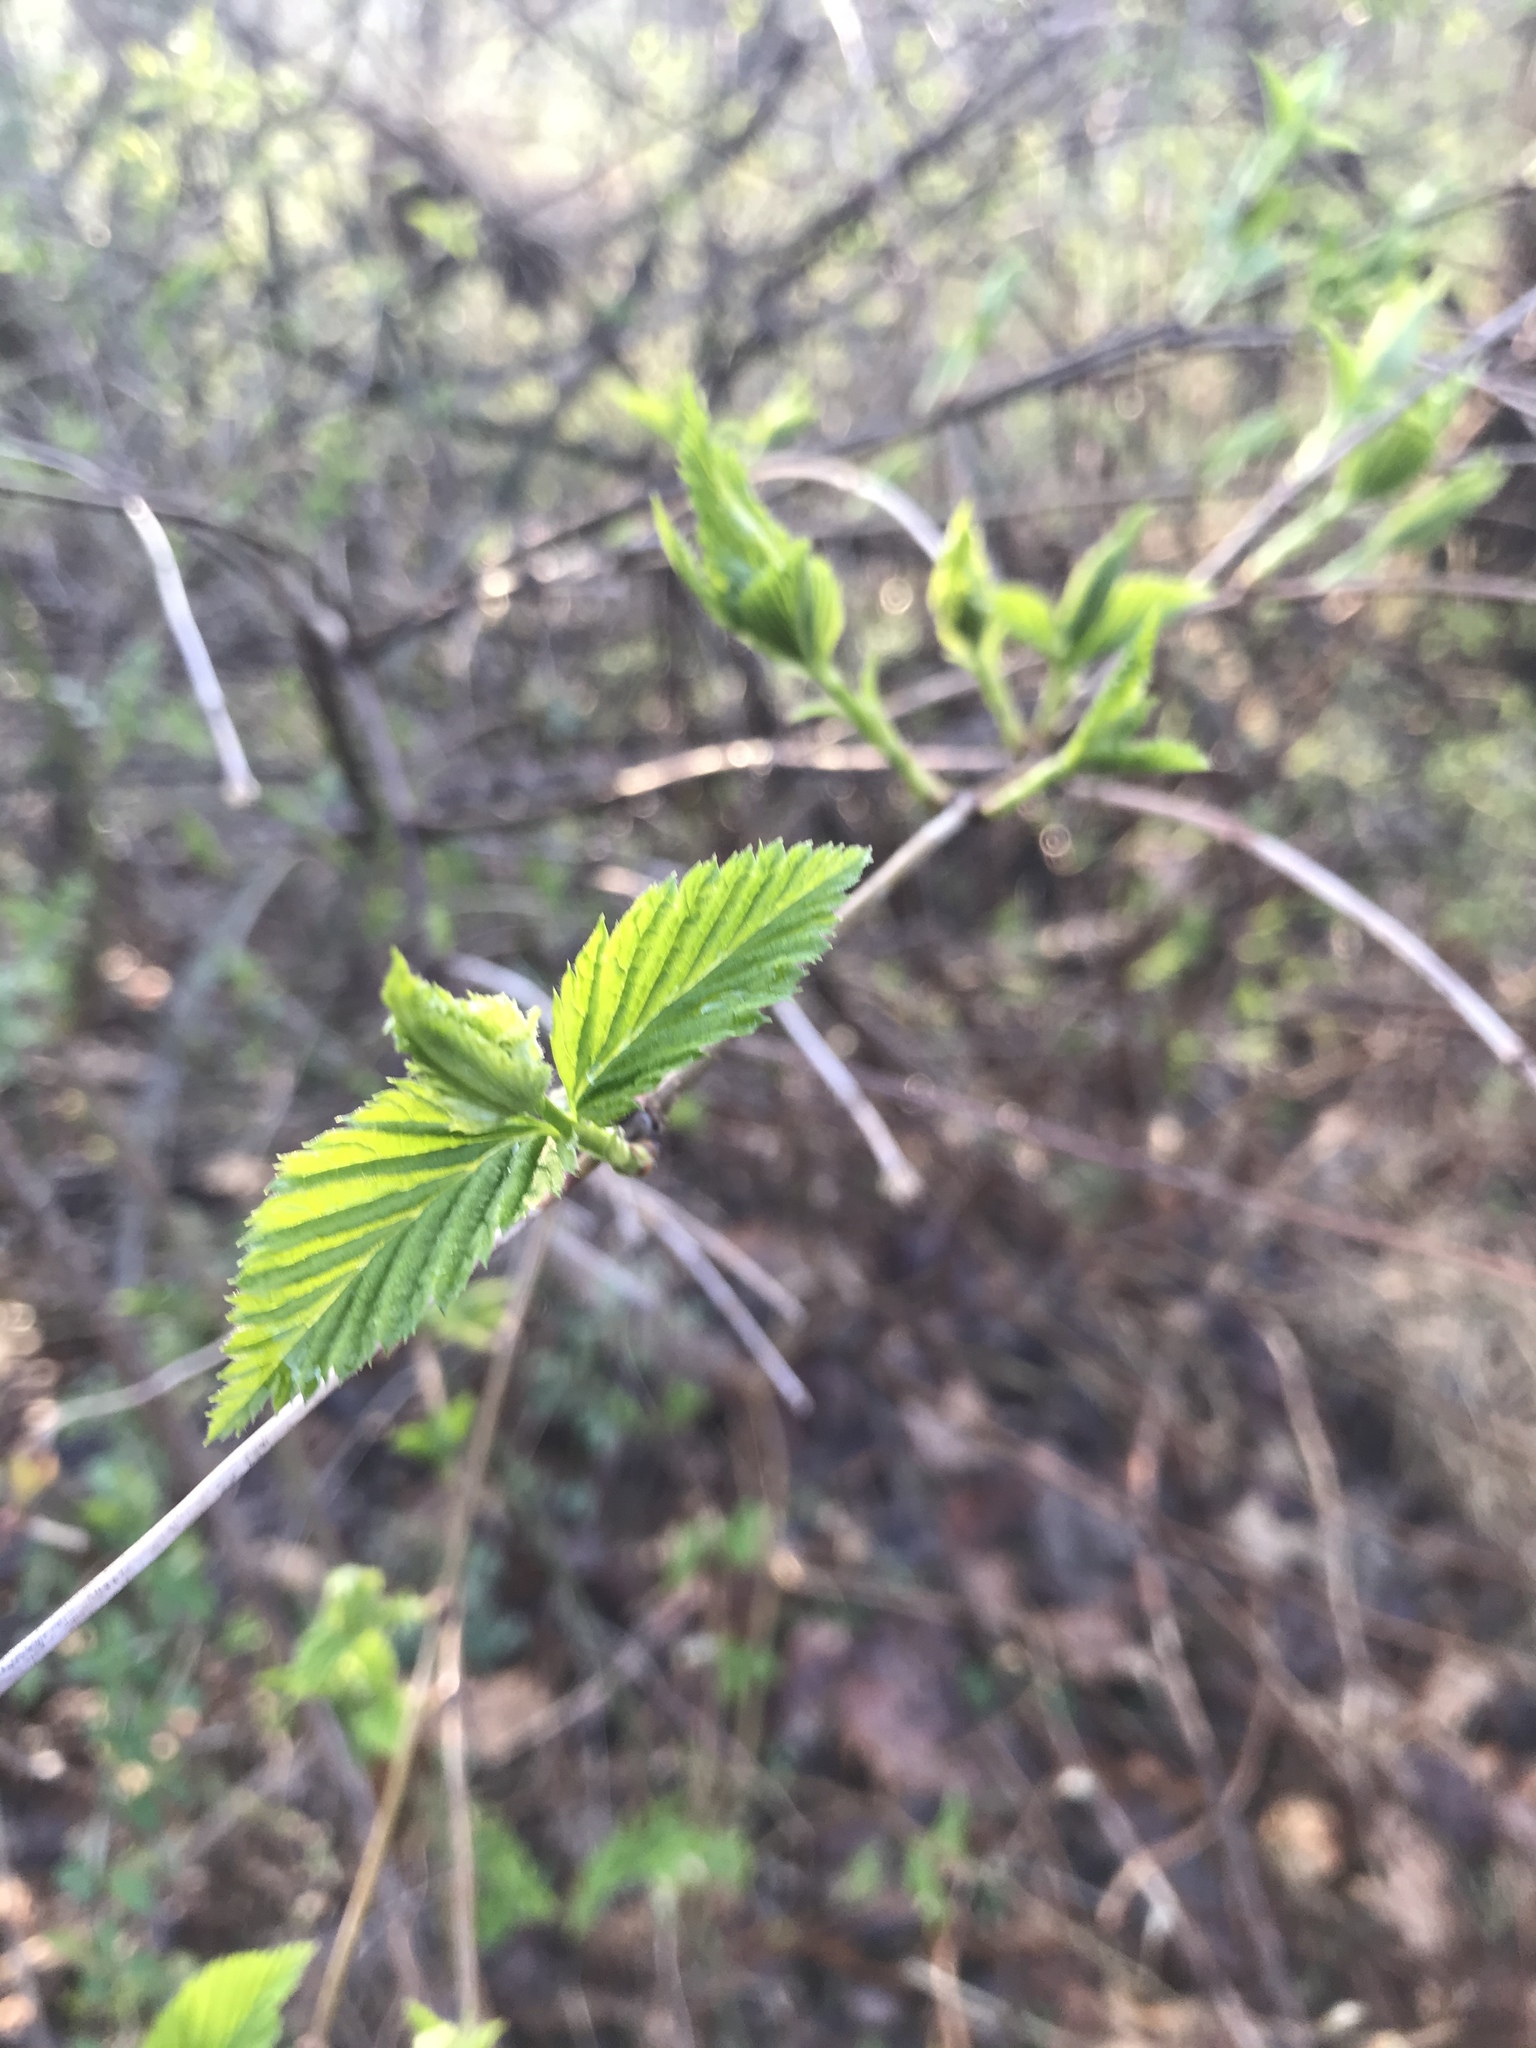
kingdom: Plantae
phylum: Tracheophyta
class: Magnoliopsida
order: Rosales
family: Rosaceae
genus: Rhodotypos
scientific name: Rhodotypos scandens
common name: Jetbead
